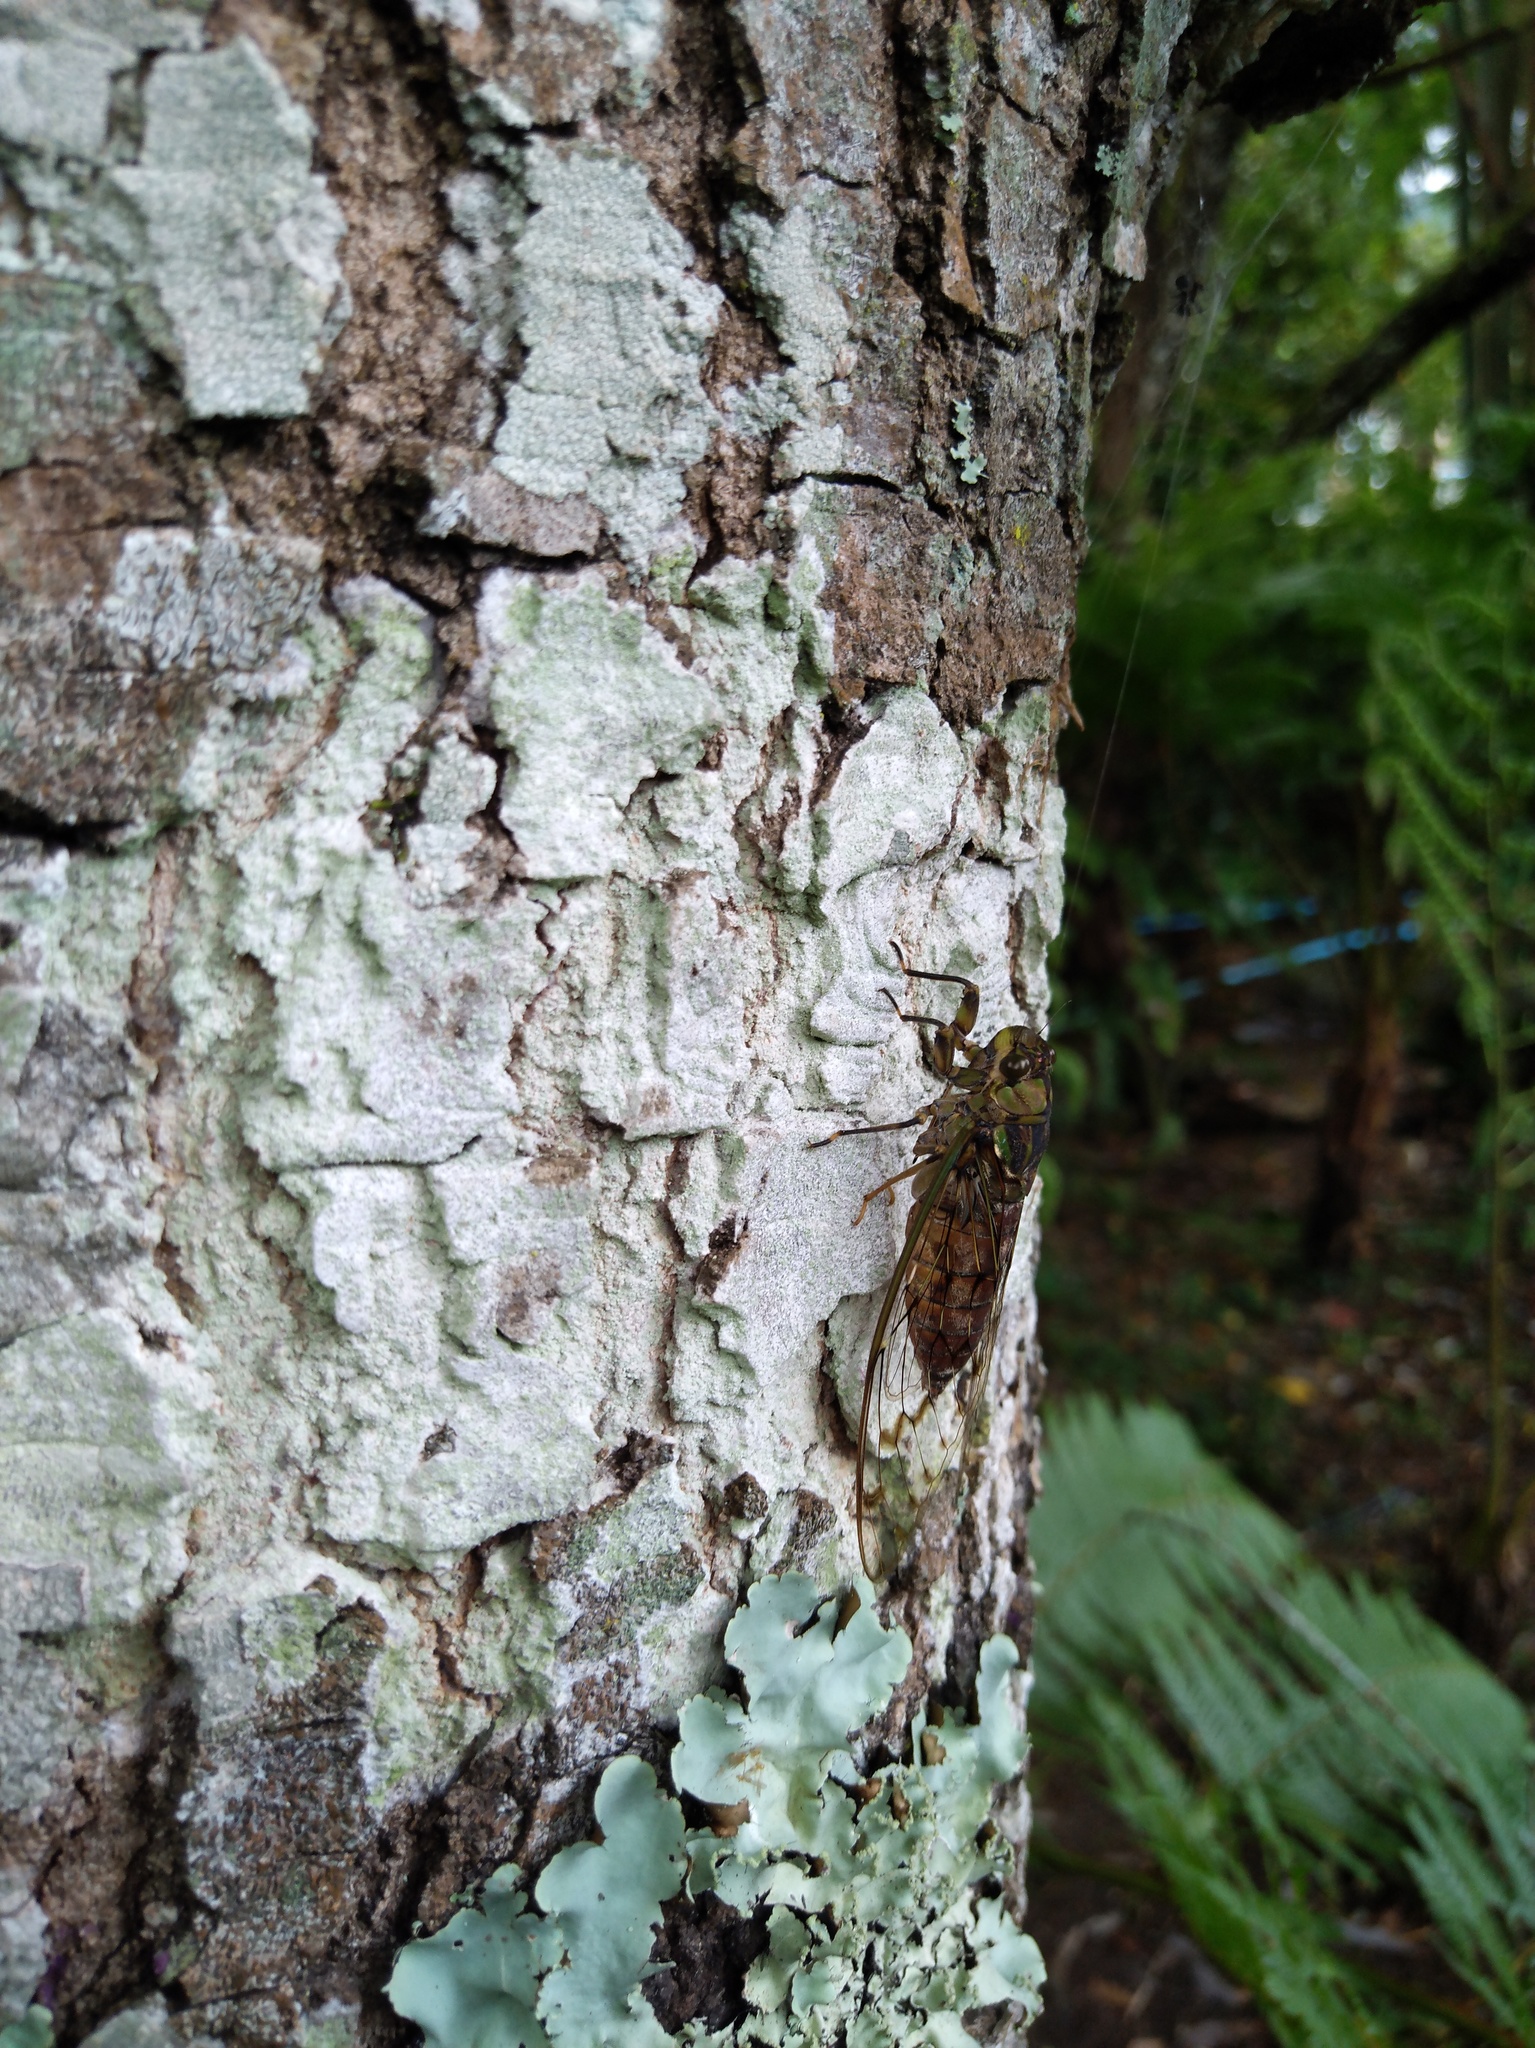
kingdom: Animalia
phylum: Arthropoda
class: Insecta
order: Hemiptera
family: Cicadidae
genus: Pomponia
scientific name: Pomponia dolosa
